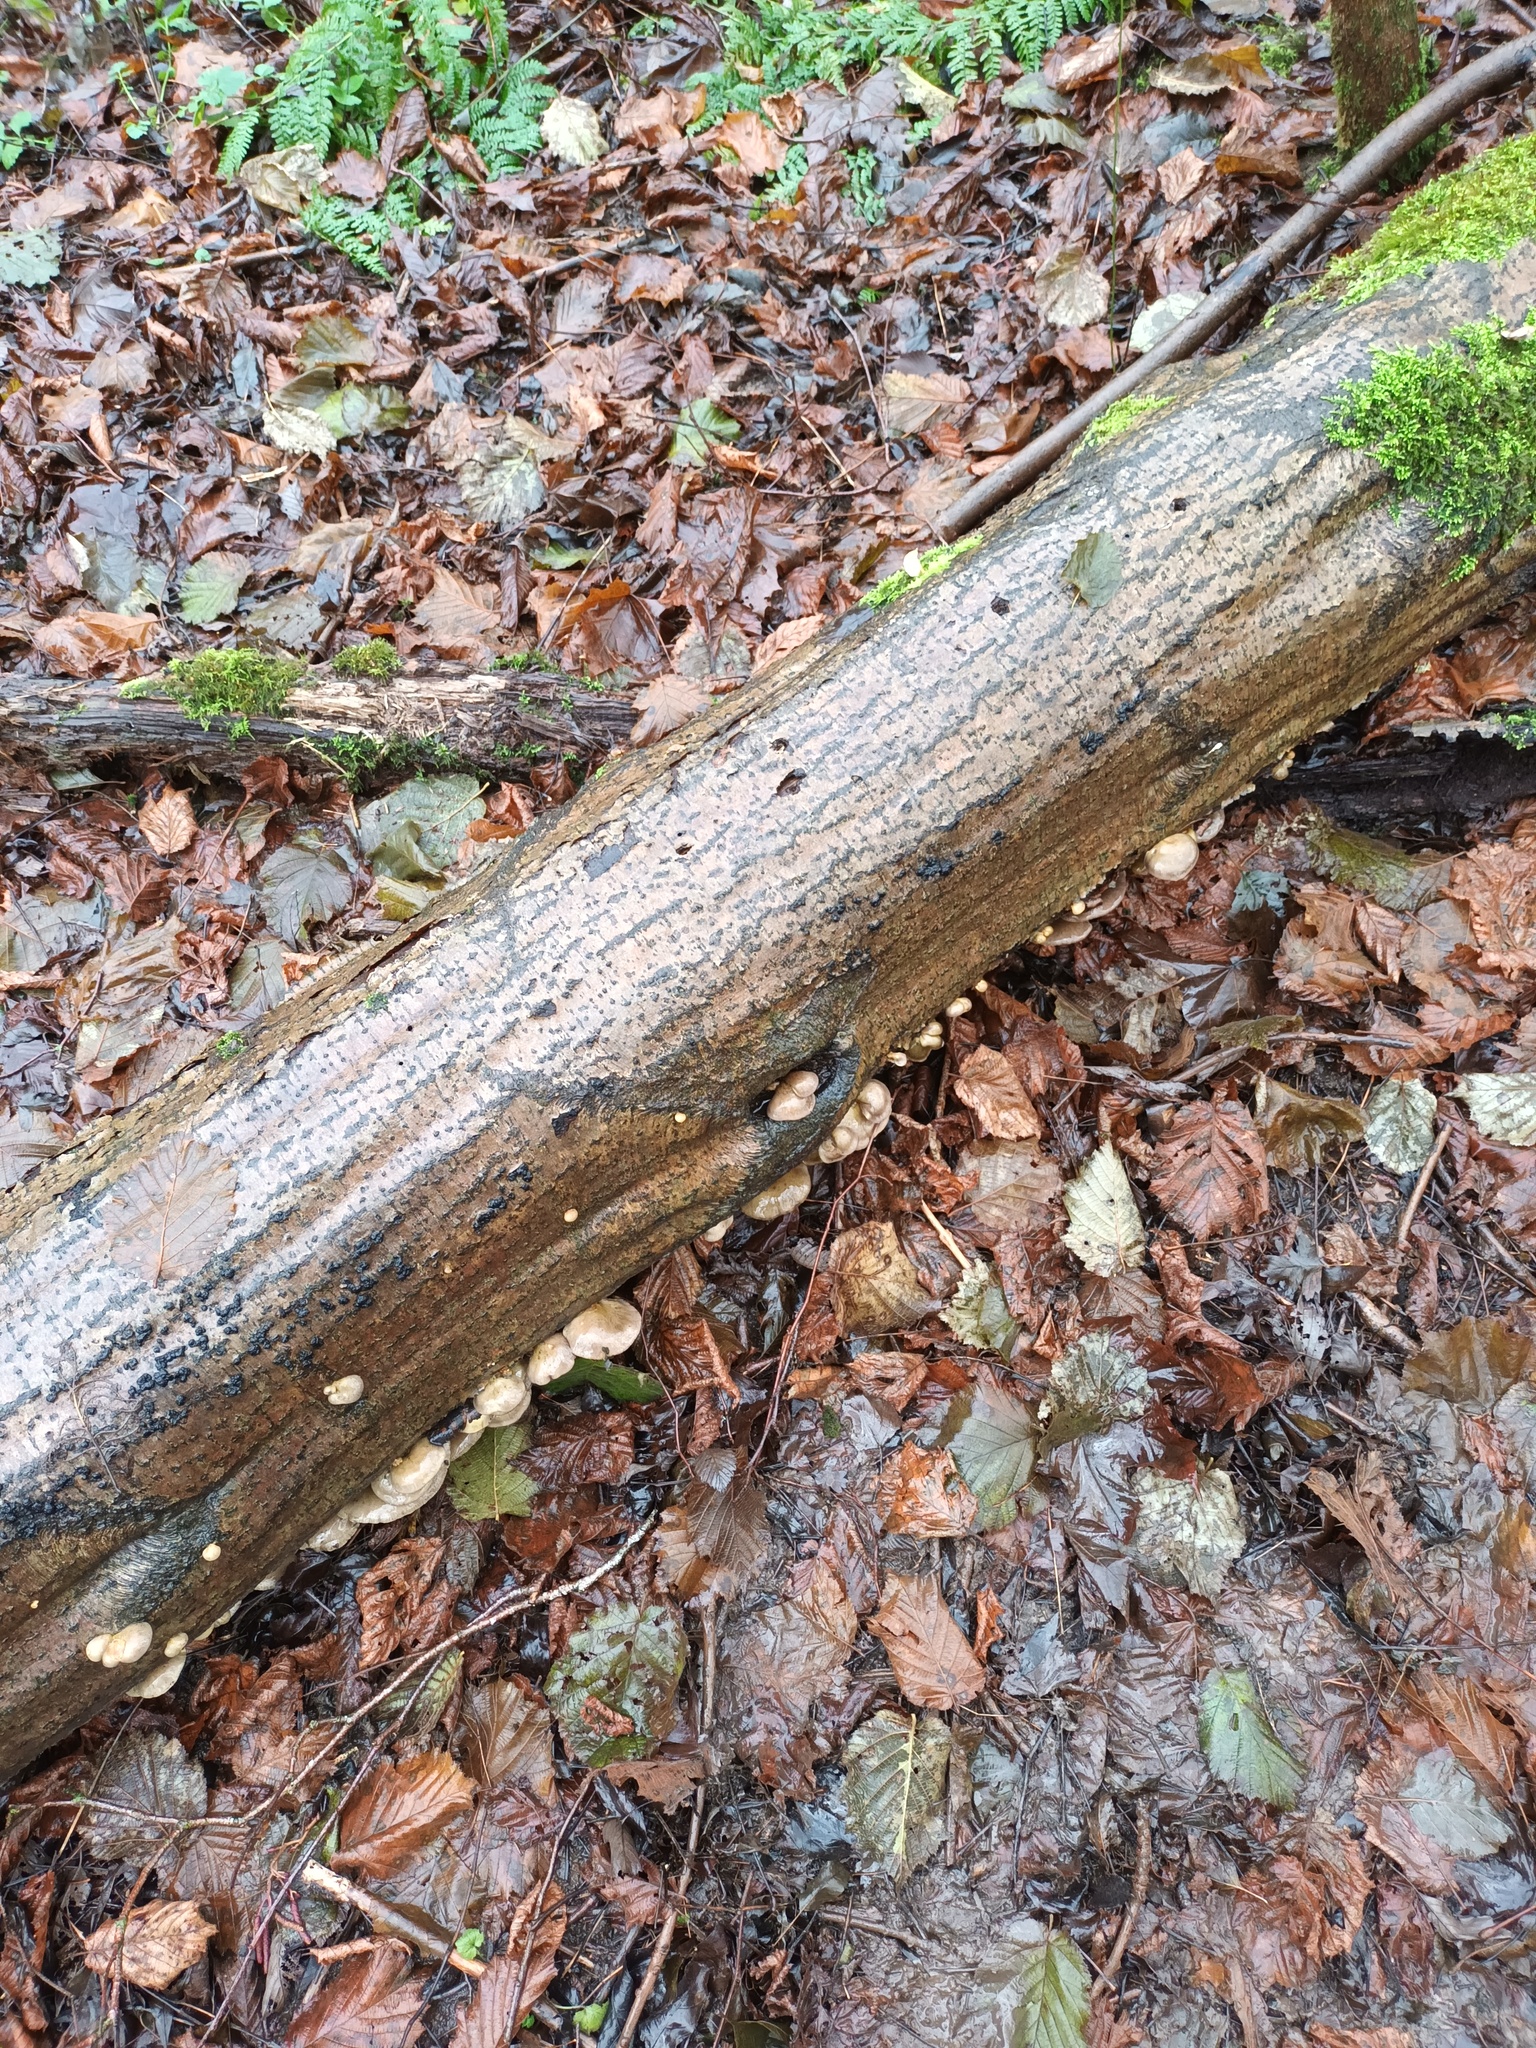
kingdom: Fungi
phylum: Basidiomycota
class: Agaricomycetes
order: Agaricales
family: Sarcomyxaceae
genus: Sarcomyxa
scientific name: Sarcomyxa serotina
